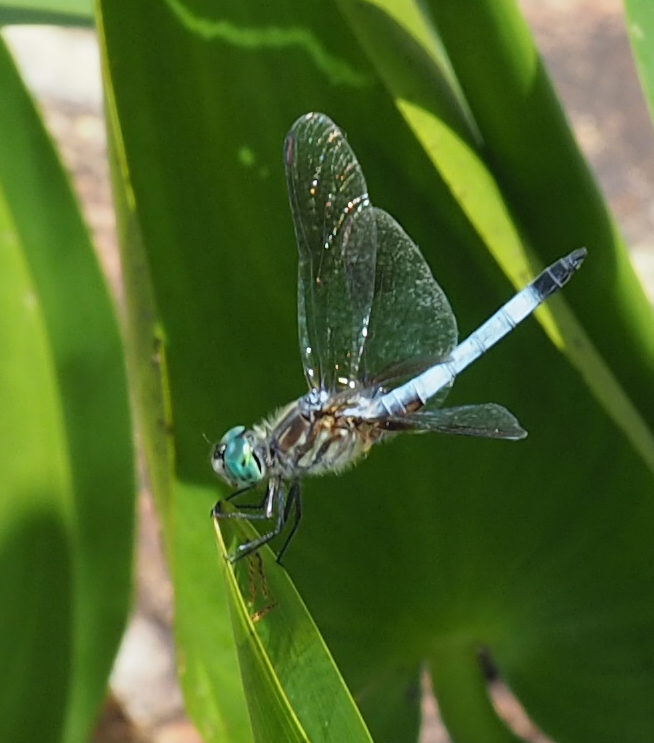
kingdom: Animalia
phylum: Arthropoda
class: Insecta
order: Odonata
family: Libellulidae
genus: Pachydiplax
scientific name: Pachydiplax longipennis
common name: Blue dasher
